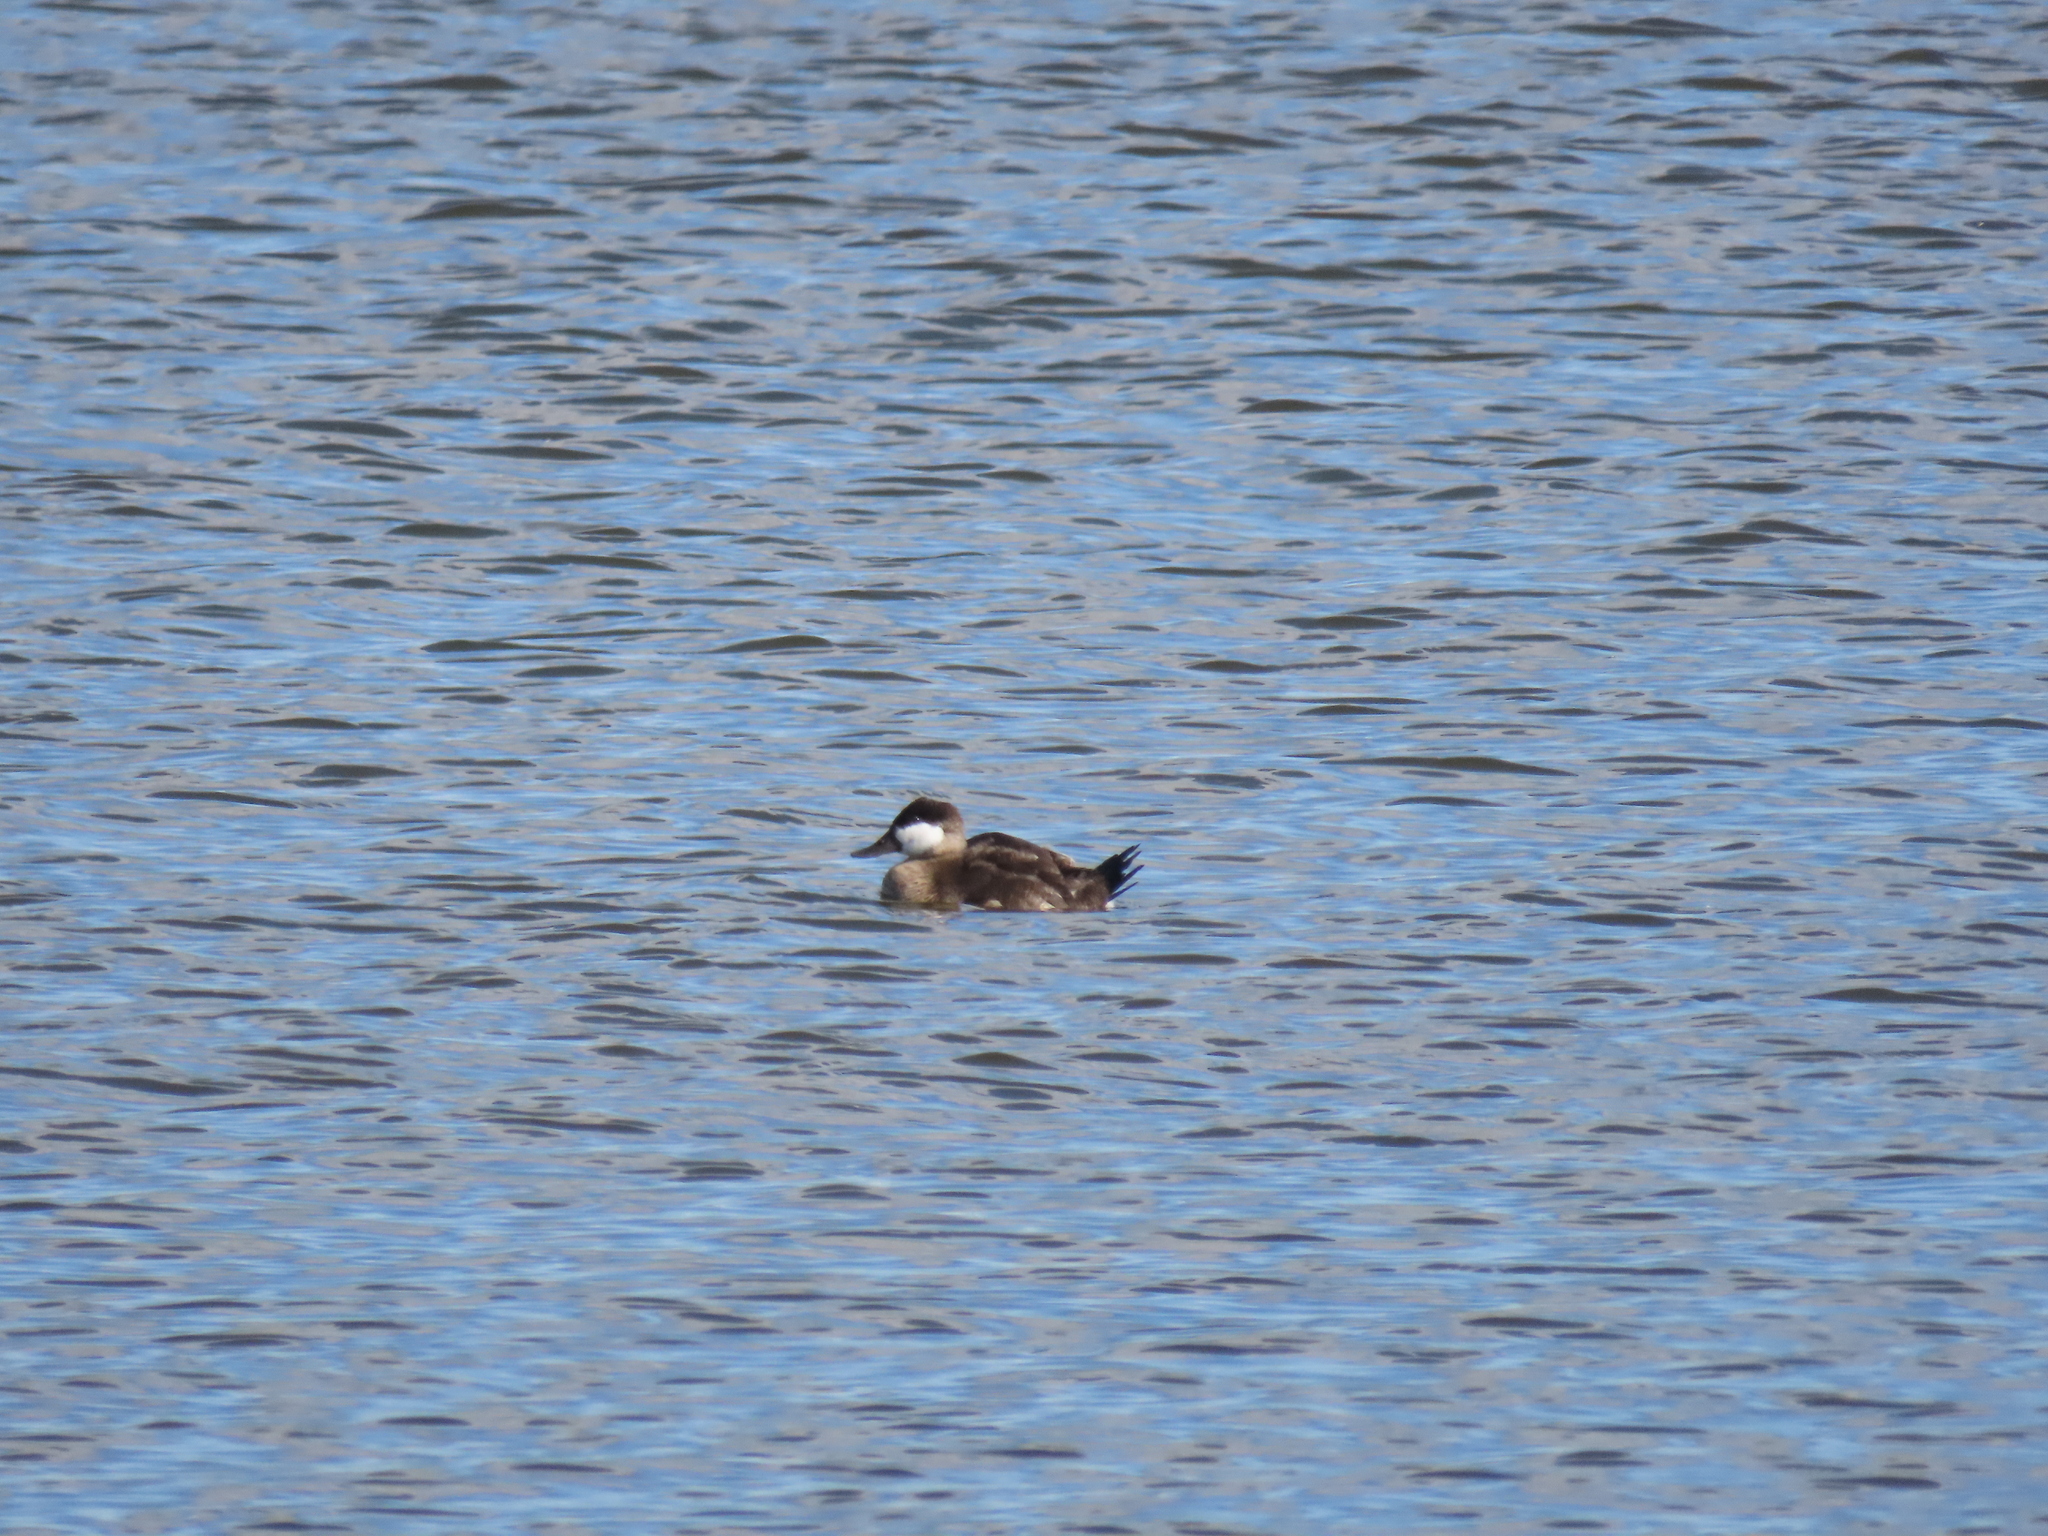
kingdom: Animalia
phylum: Chordata
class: Aves
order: Anseriformes
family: Anatidae
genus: Oxyura
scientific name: Oxyura jamaicensis
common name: Ruddy duck
